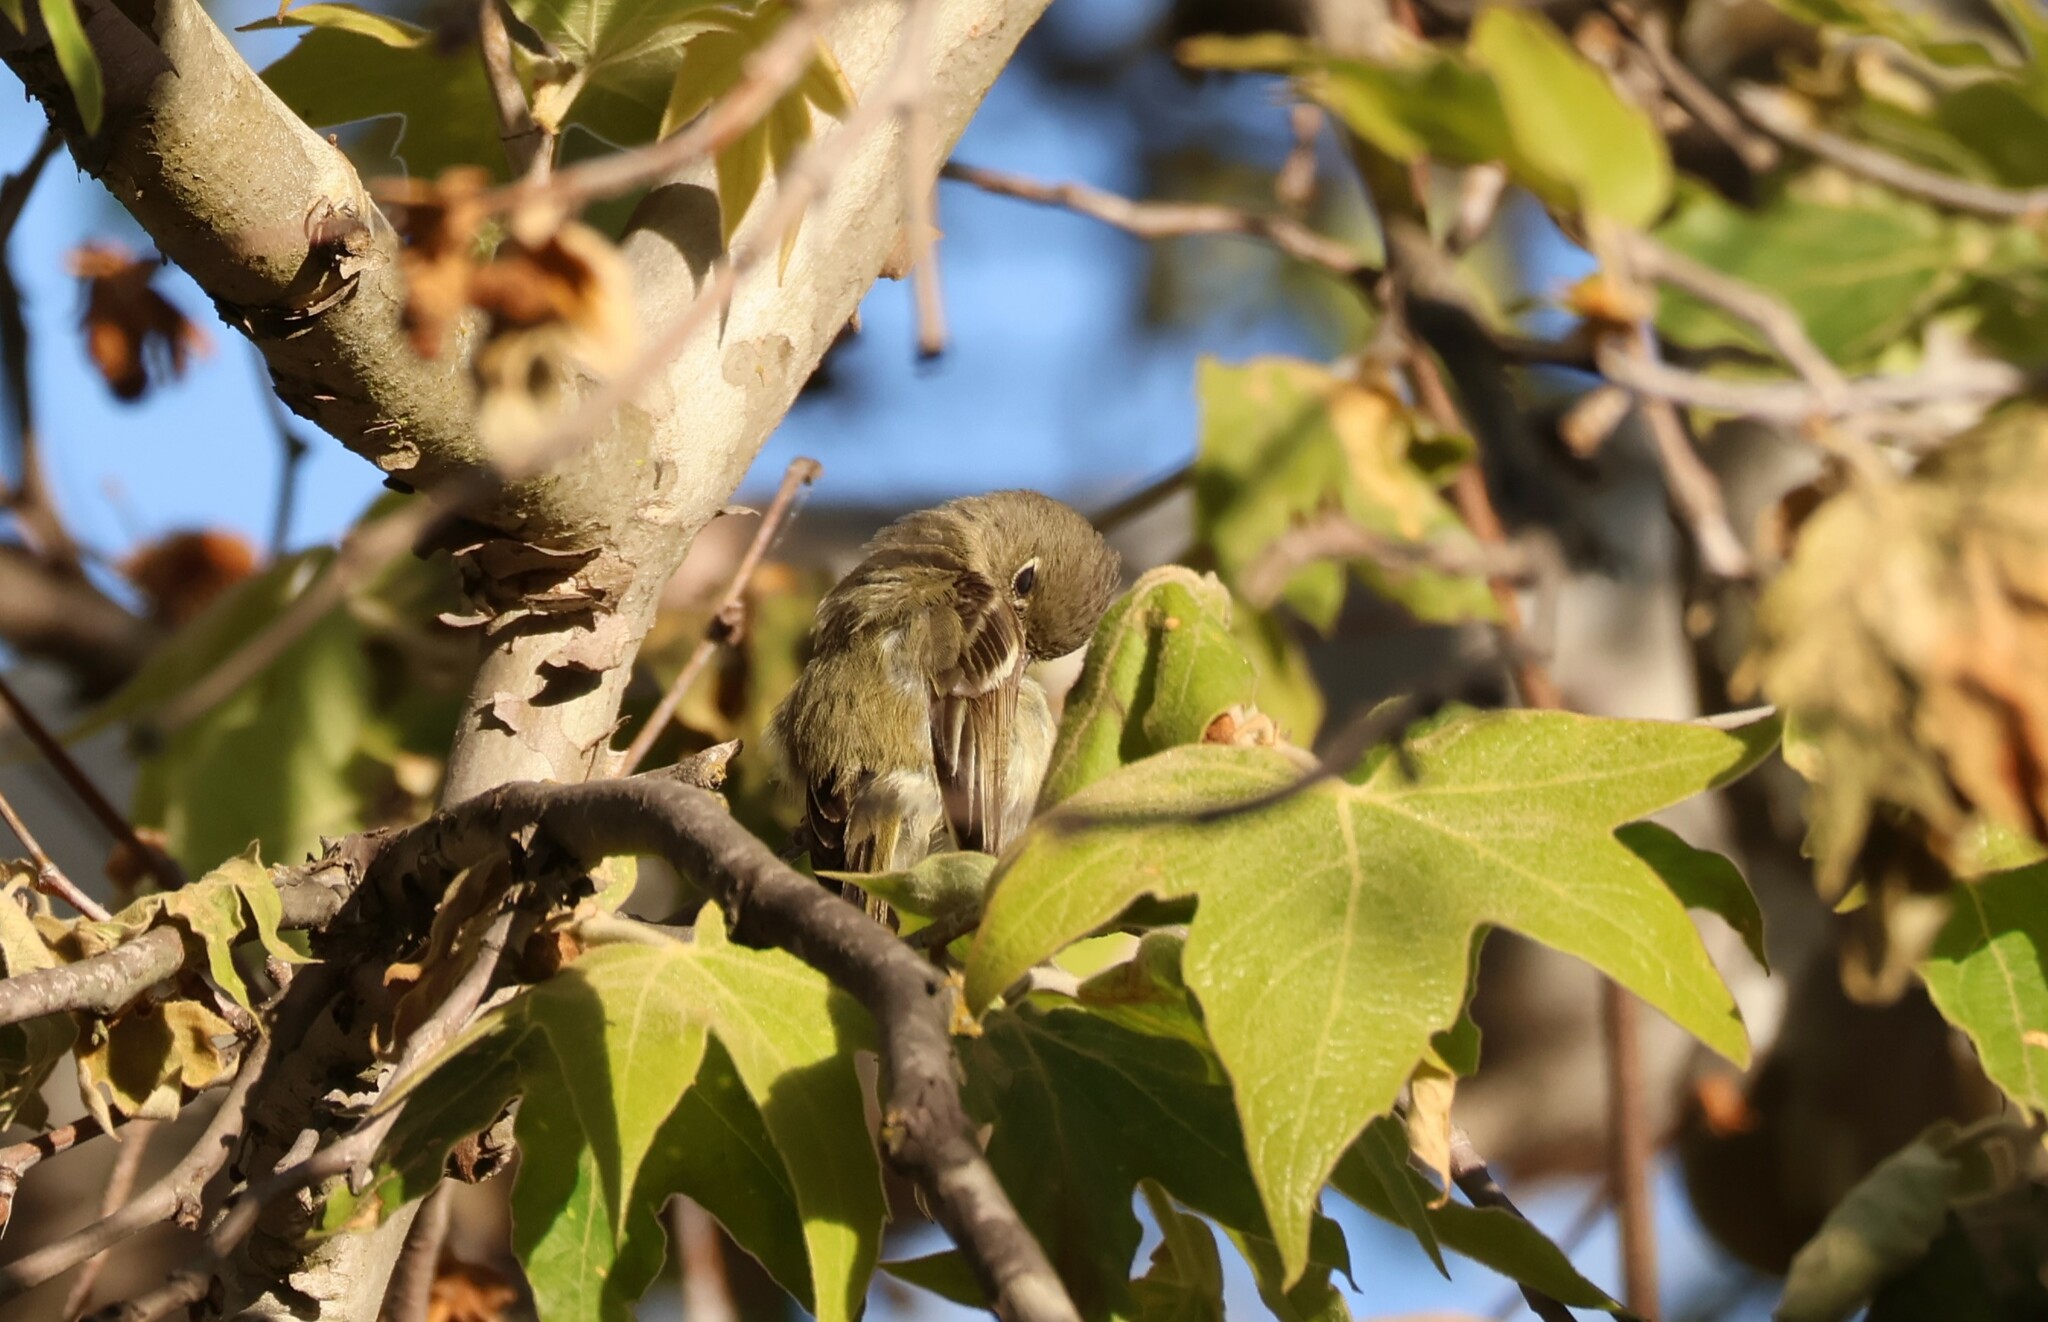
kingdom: Animalia
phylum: Chordata
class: Aves
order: Passeriformes
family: Vireonidae
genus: Vireo
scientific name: Vireo huttoni
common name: Hutton's vireo
